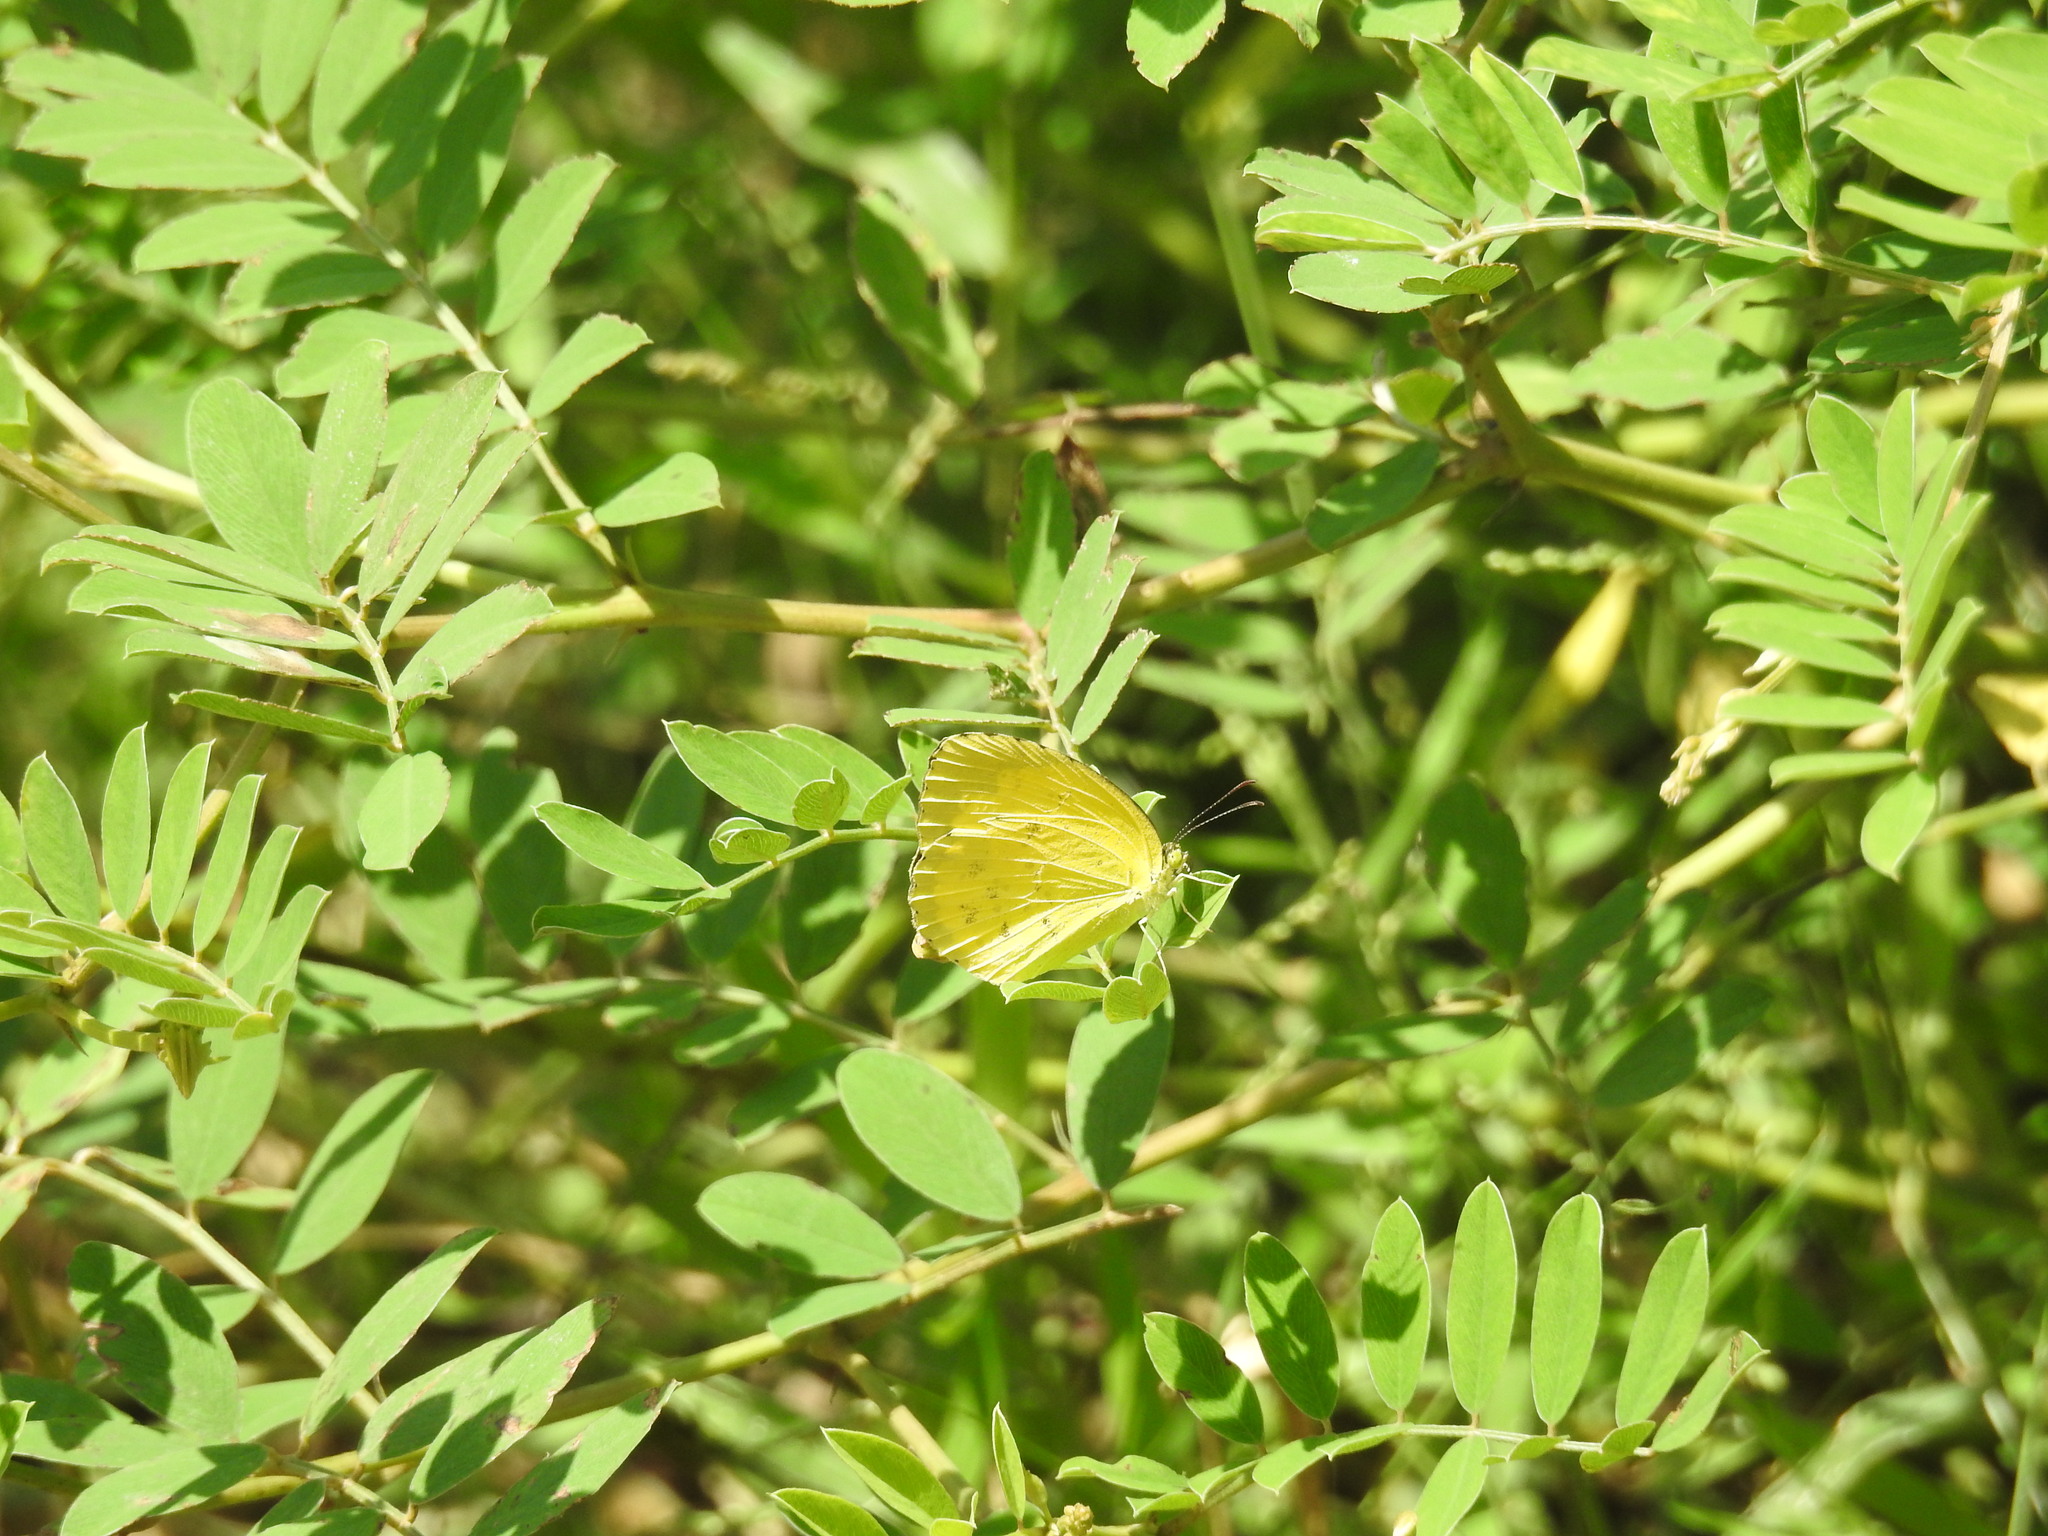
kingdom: Animalia
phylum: Arthropoda
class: Insecta
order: Lepidoptera
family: Pieridae
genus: Eurema
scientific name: Eurema hecabe
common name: Pale grass yellow
